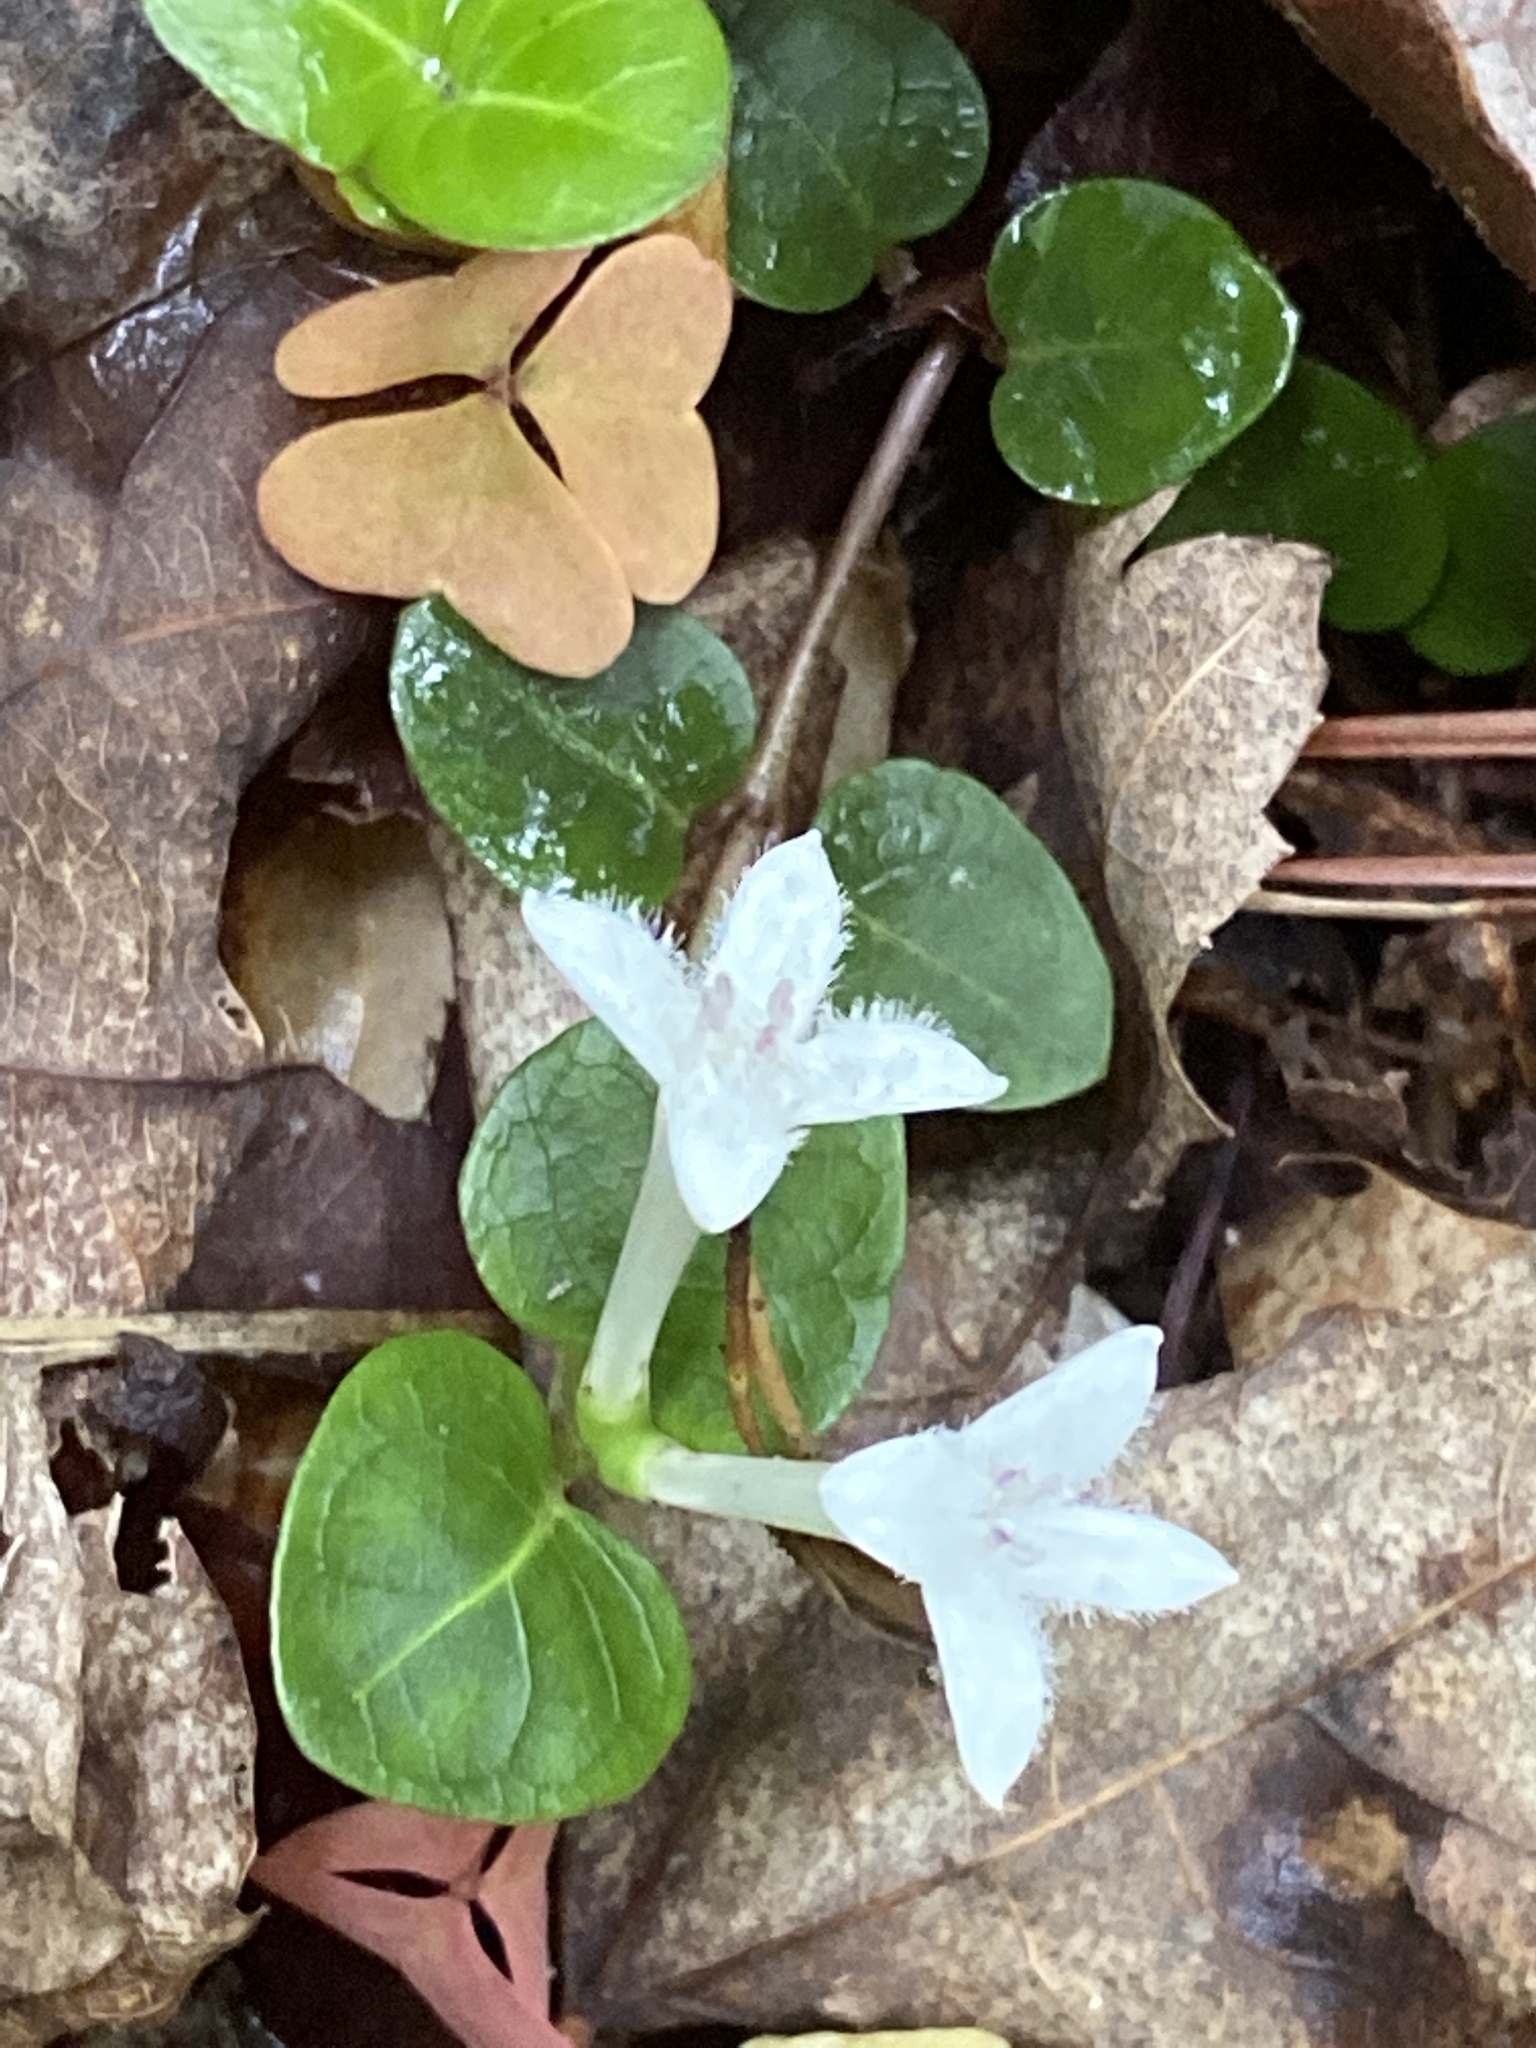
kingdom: Plantae
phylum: Tracheophyta
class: Magnoliopsida
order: Gentianales
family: Rubiaceae
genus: Mitchella
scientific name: Mitchella repens
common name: Partridge-berry
